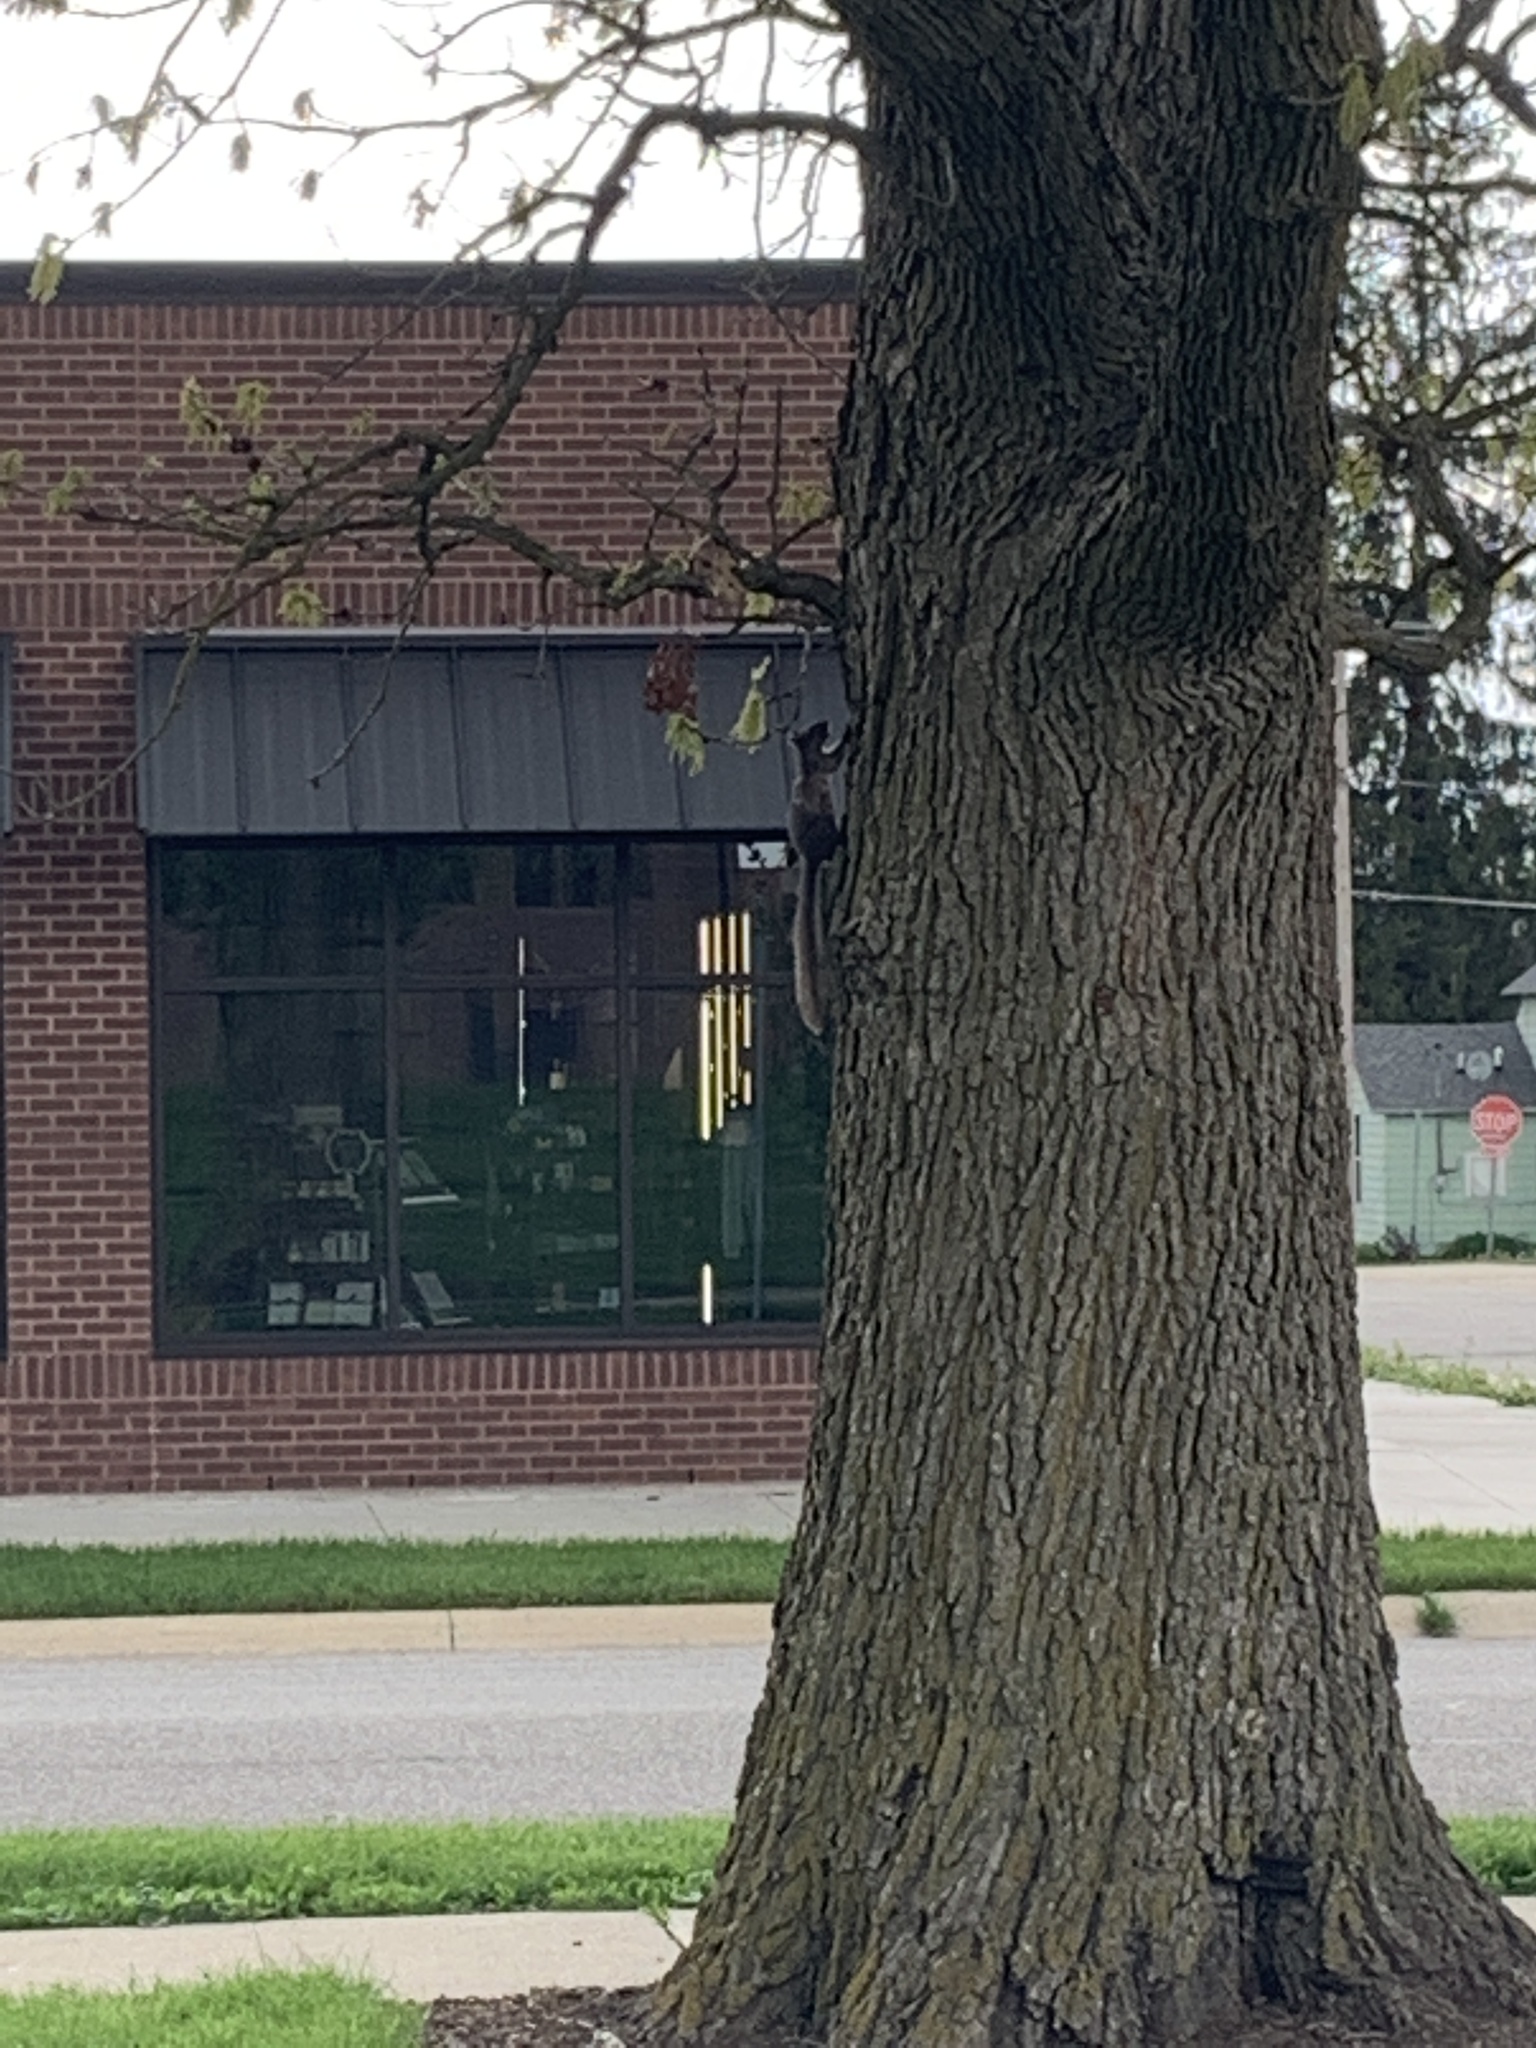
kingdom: Animalia
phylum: Chordata
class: Mammalia
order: Rodentia
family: Sciuridae
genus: Sciurus
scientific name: Sciurus carolinensis
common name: Eastern gray squirrel
